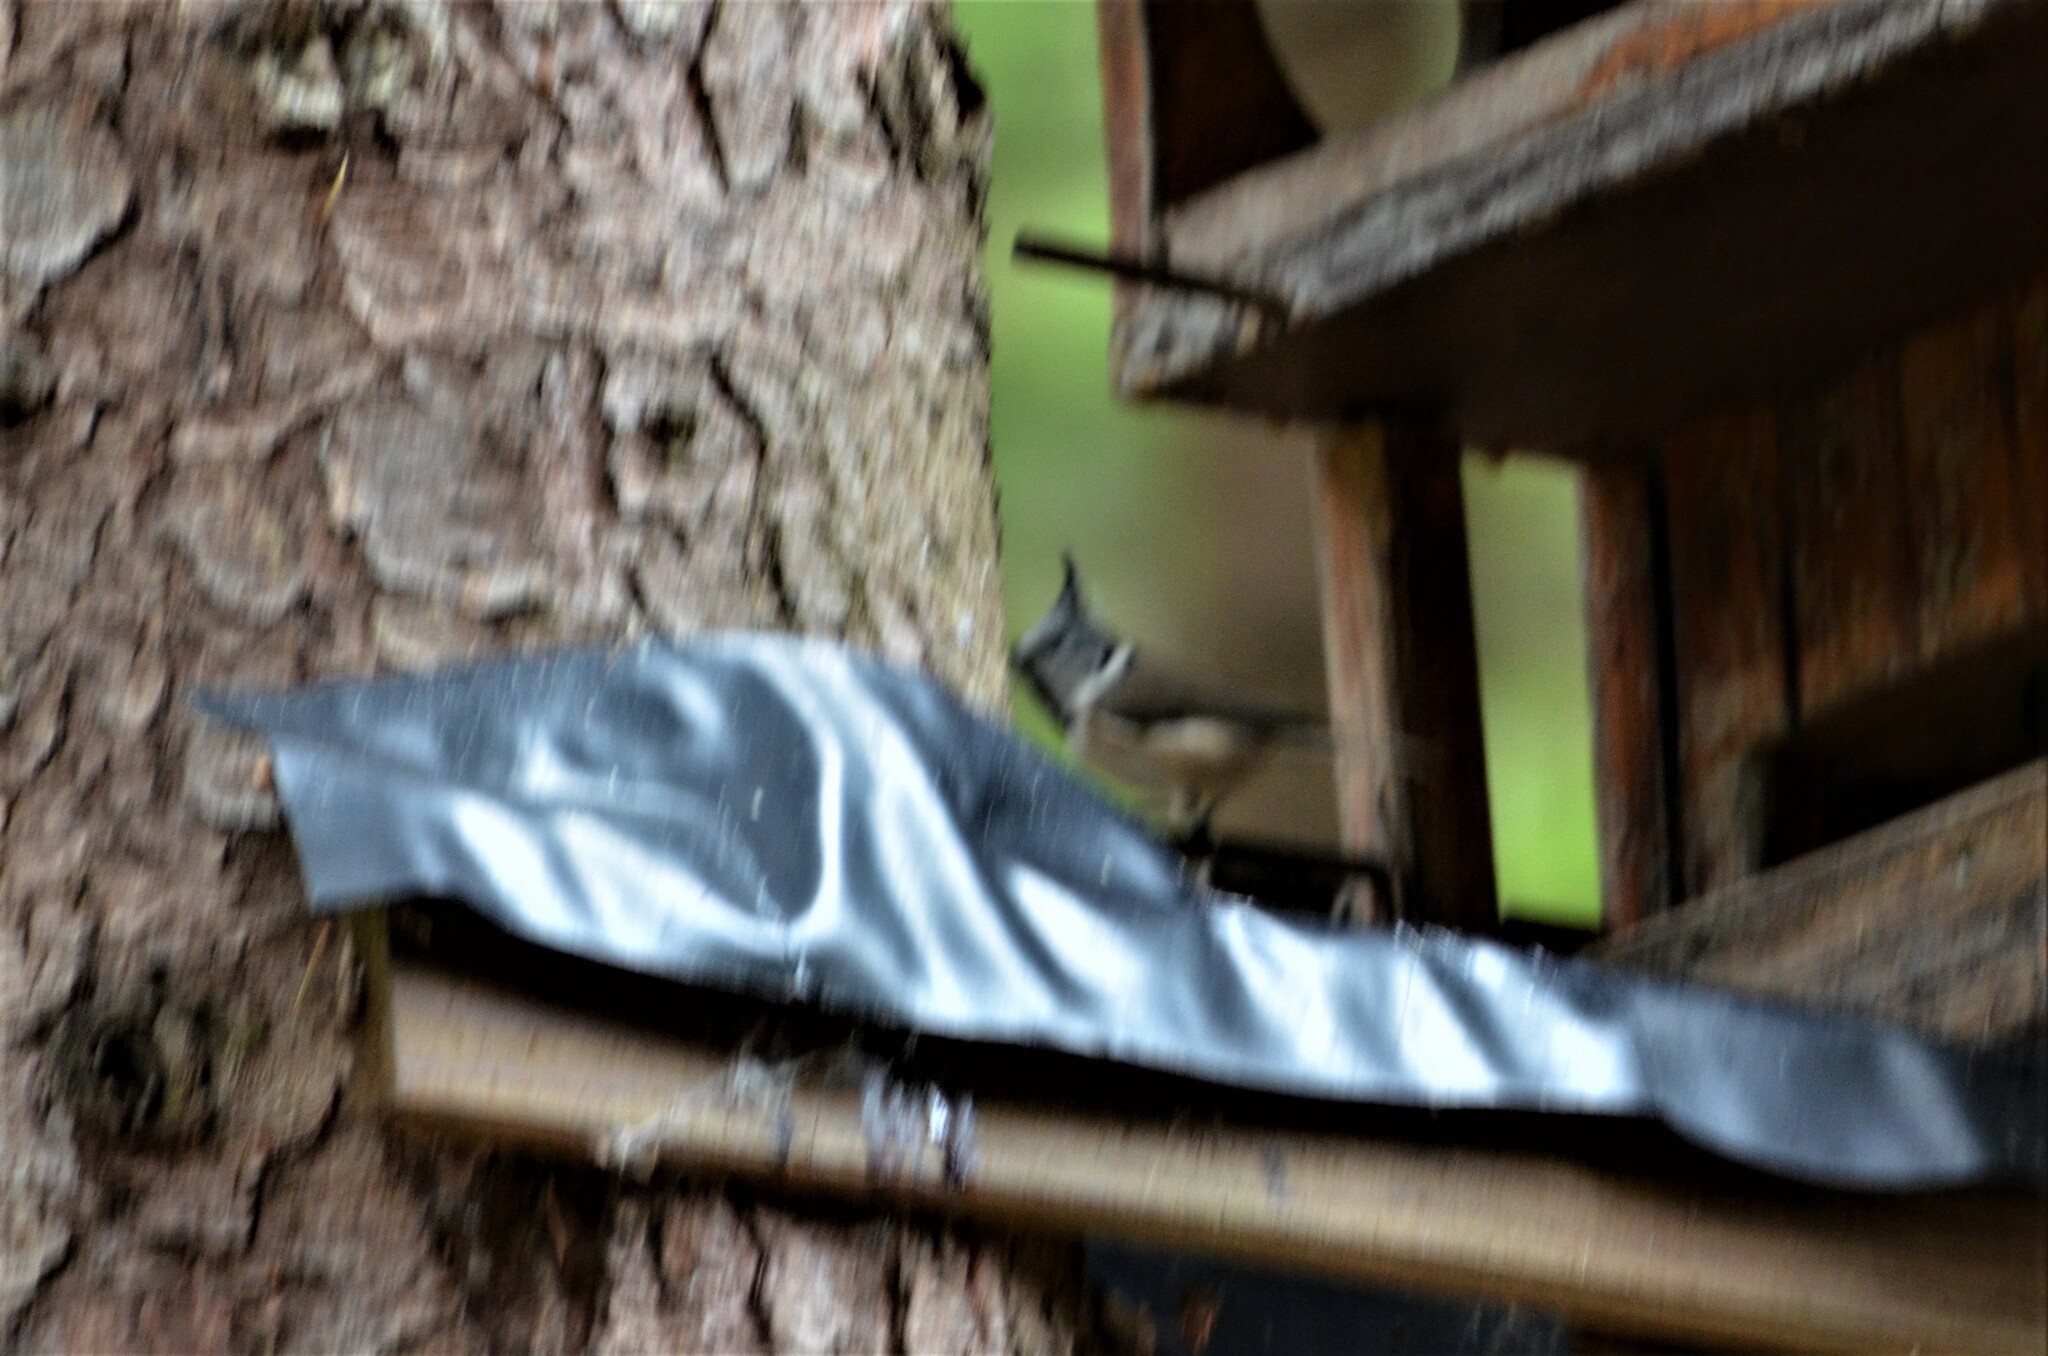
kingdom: Animalia
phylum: Chordata
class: Aves
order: Passeriformes
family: Paridae
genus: Lophophanes
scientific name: Lophophanes cristatus
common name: European crested tit
